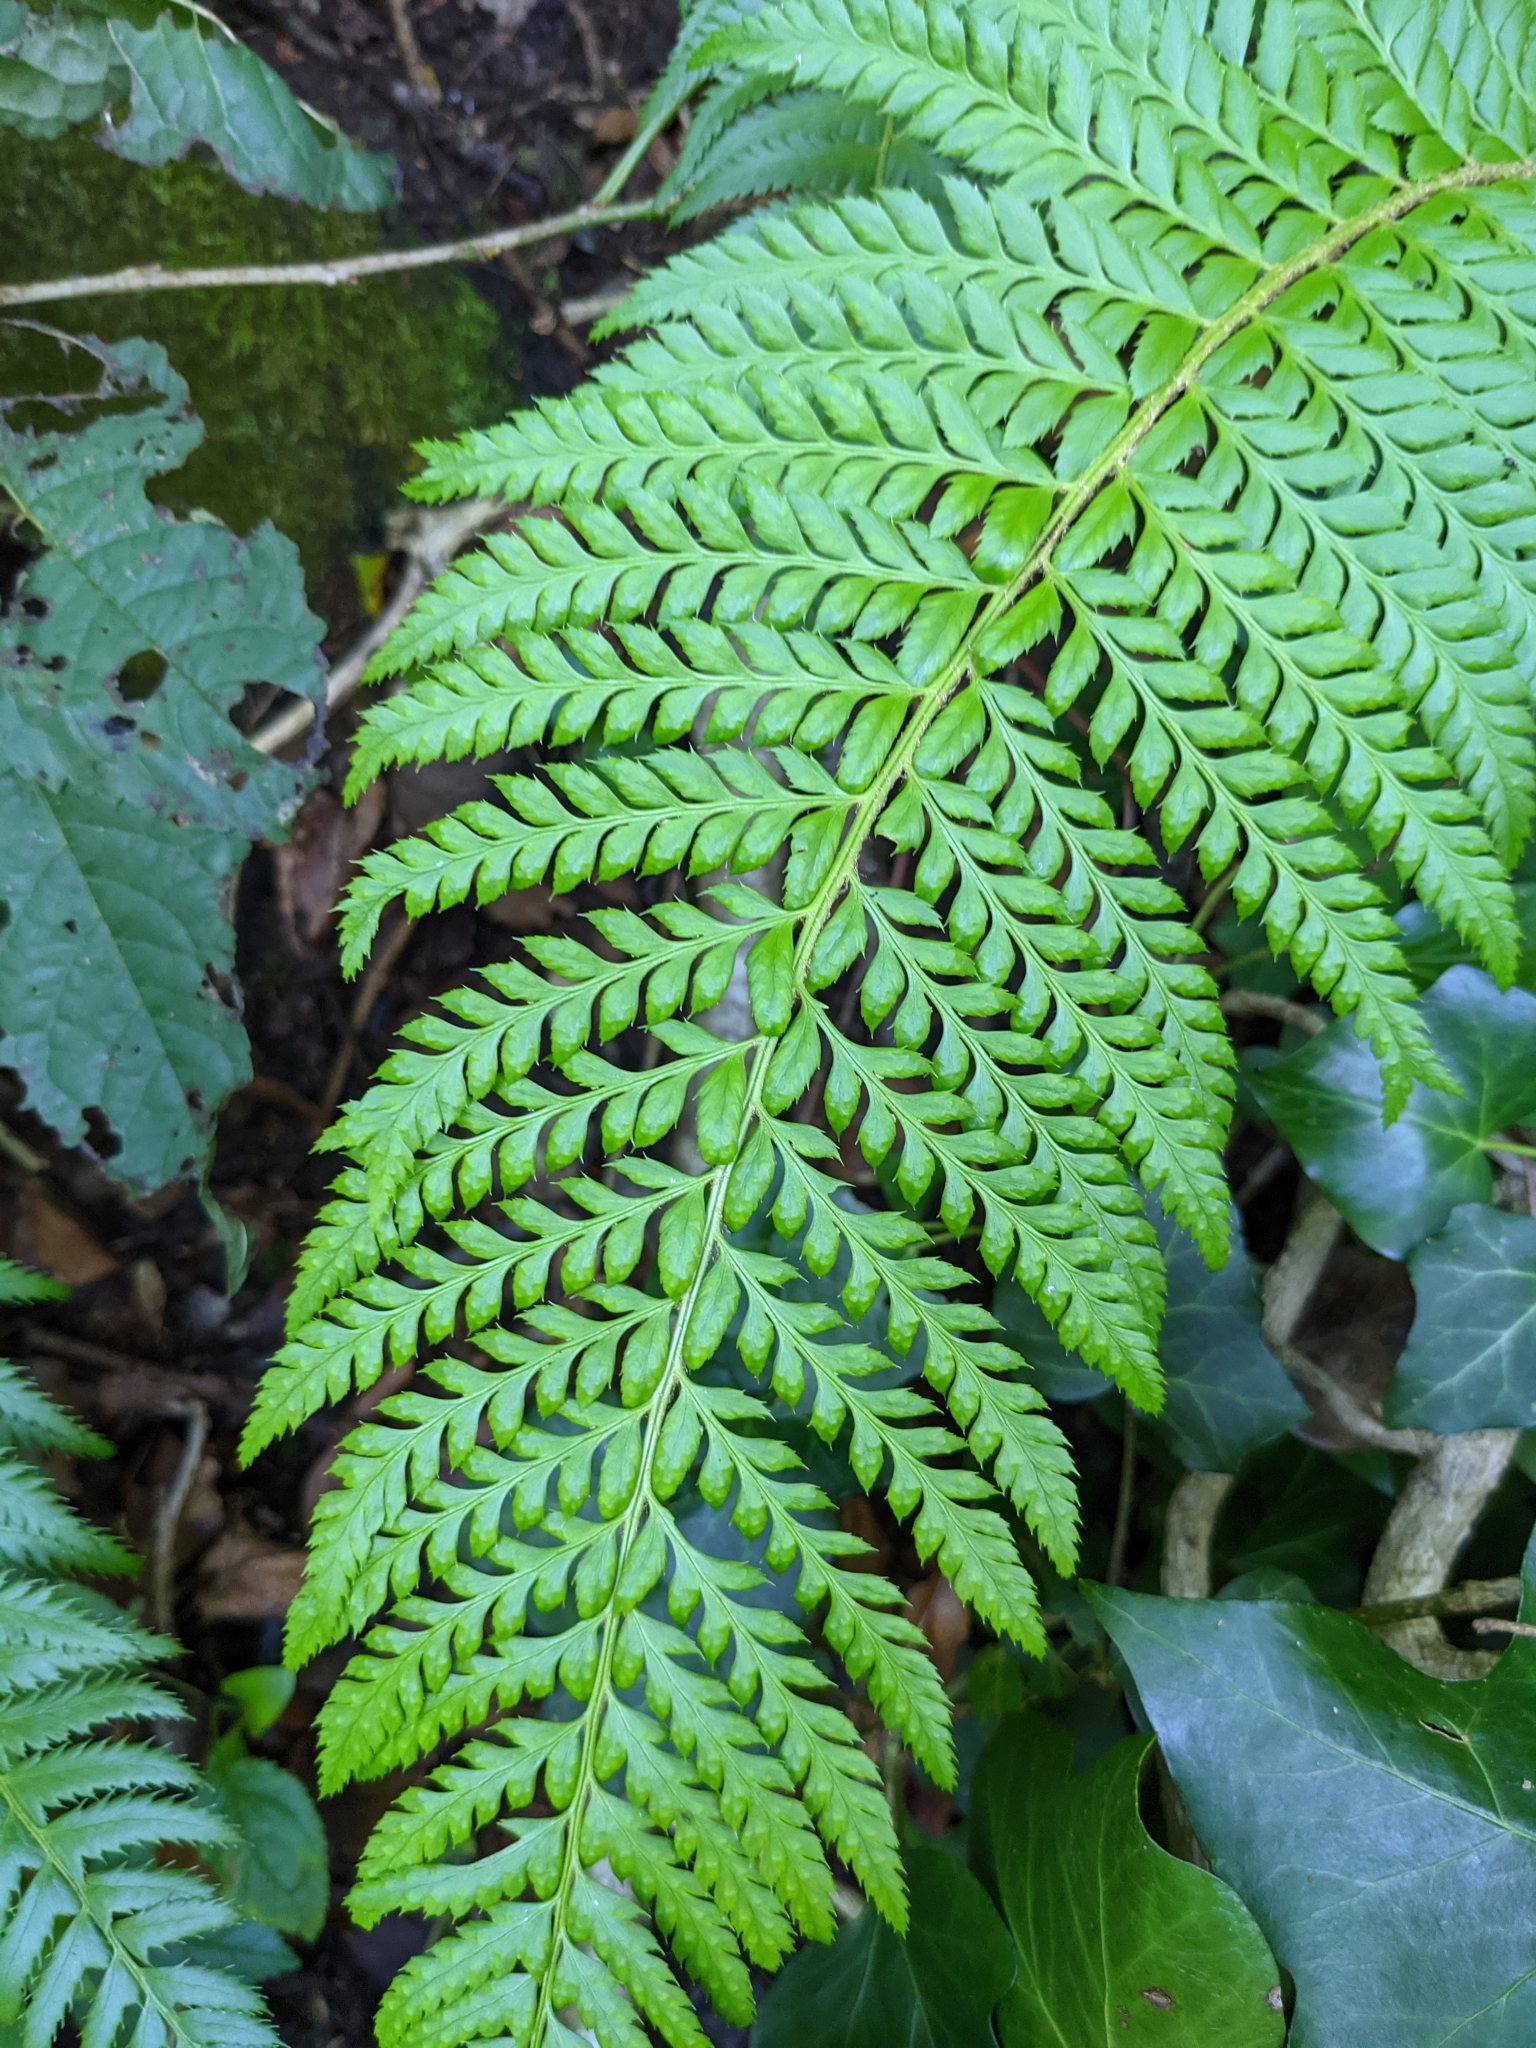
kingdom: Plantae
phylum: Tracheophyta
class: Polypodiopsida
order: Polypodiales
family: Dryopteridaceae
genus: Polystichum
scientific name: Polystichum aculeatum
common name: Hard shield-fern
